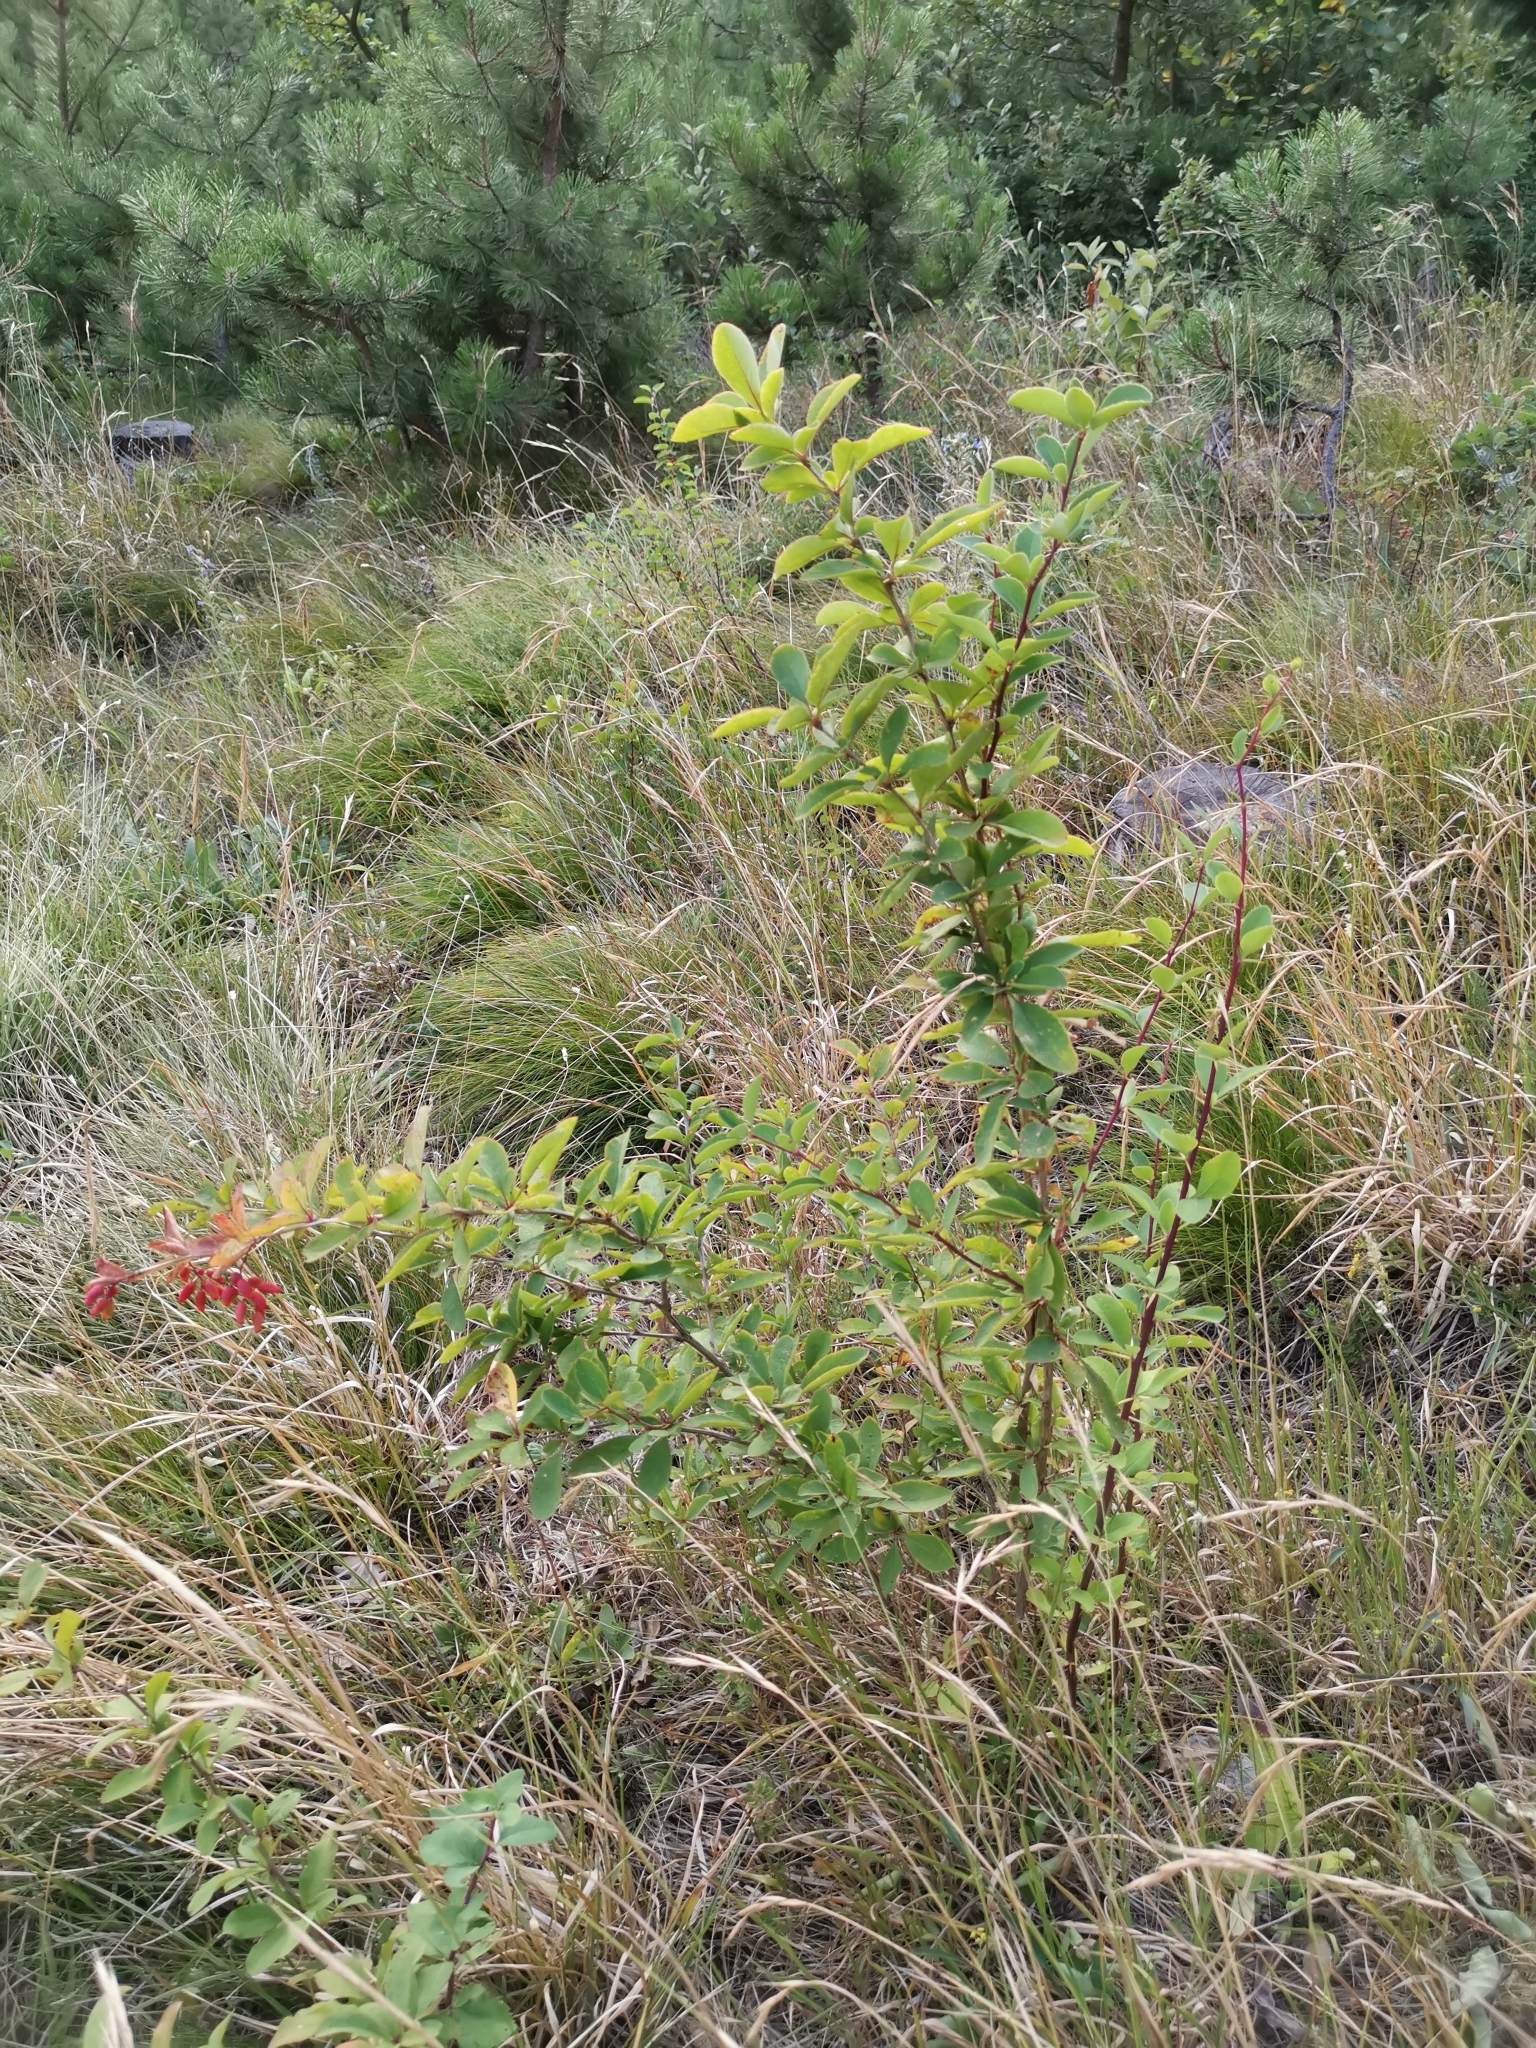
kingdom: Plantae
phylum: Tracheophyta
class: Magnoliopsida
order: Ranunculales
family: Berberidaceae
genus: Berberis
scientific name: Berberis vulgaris
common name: Barberry
